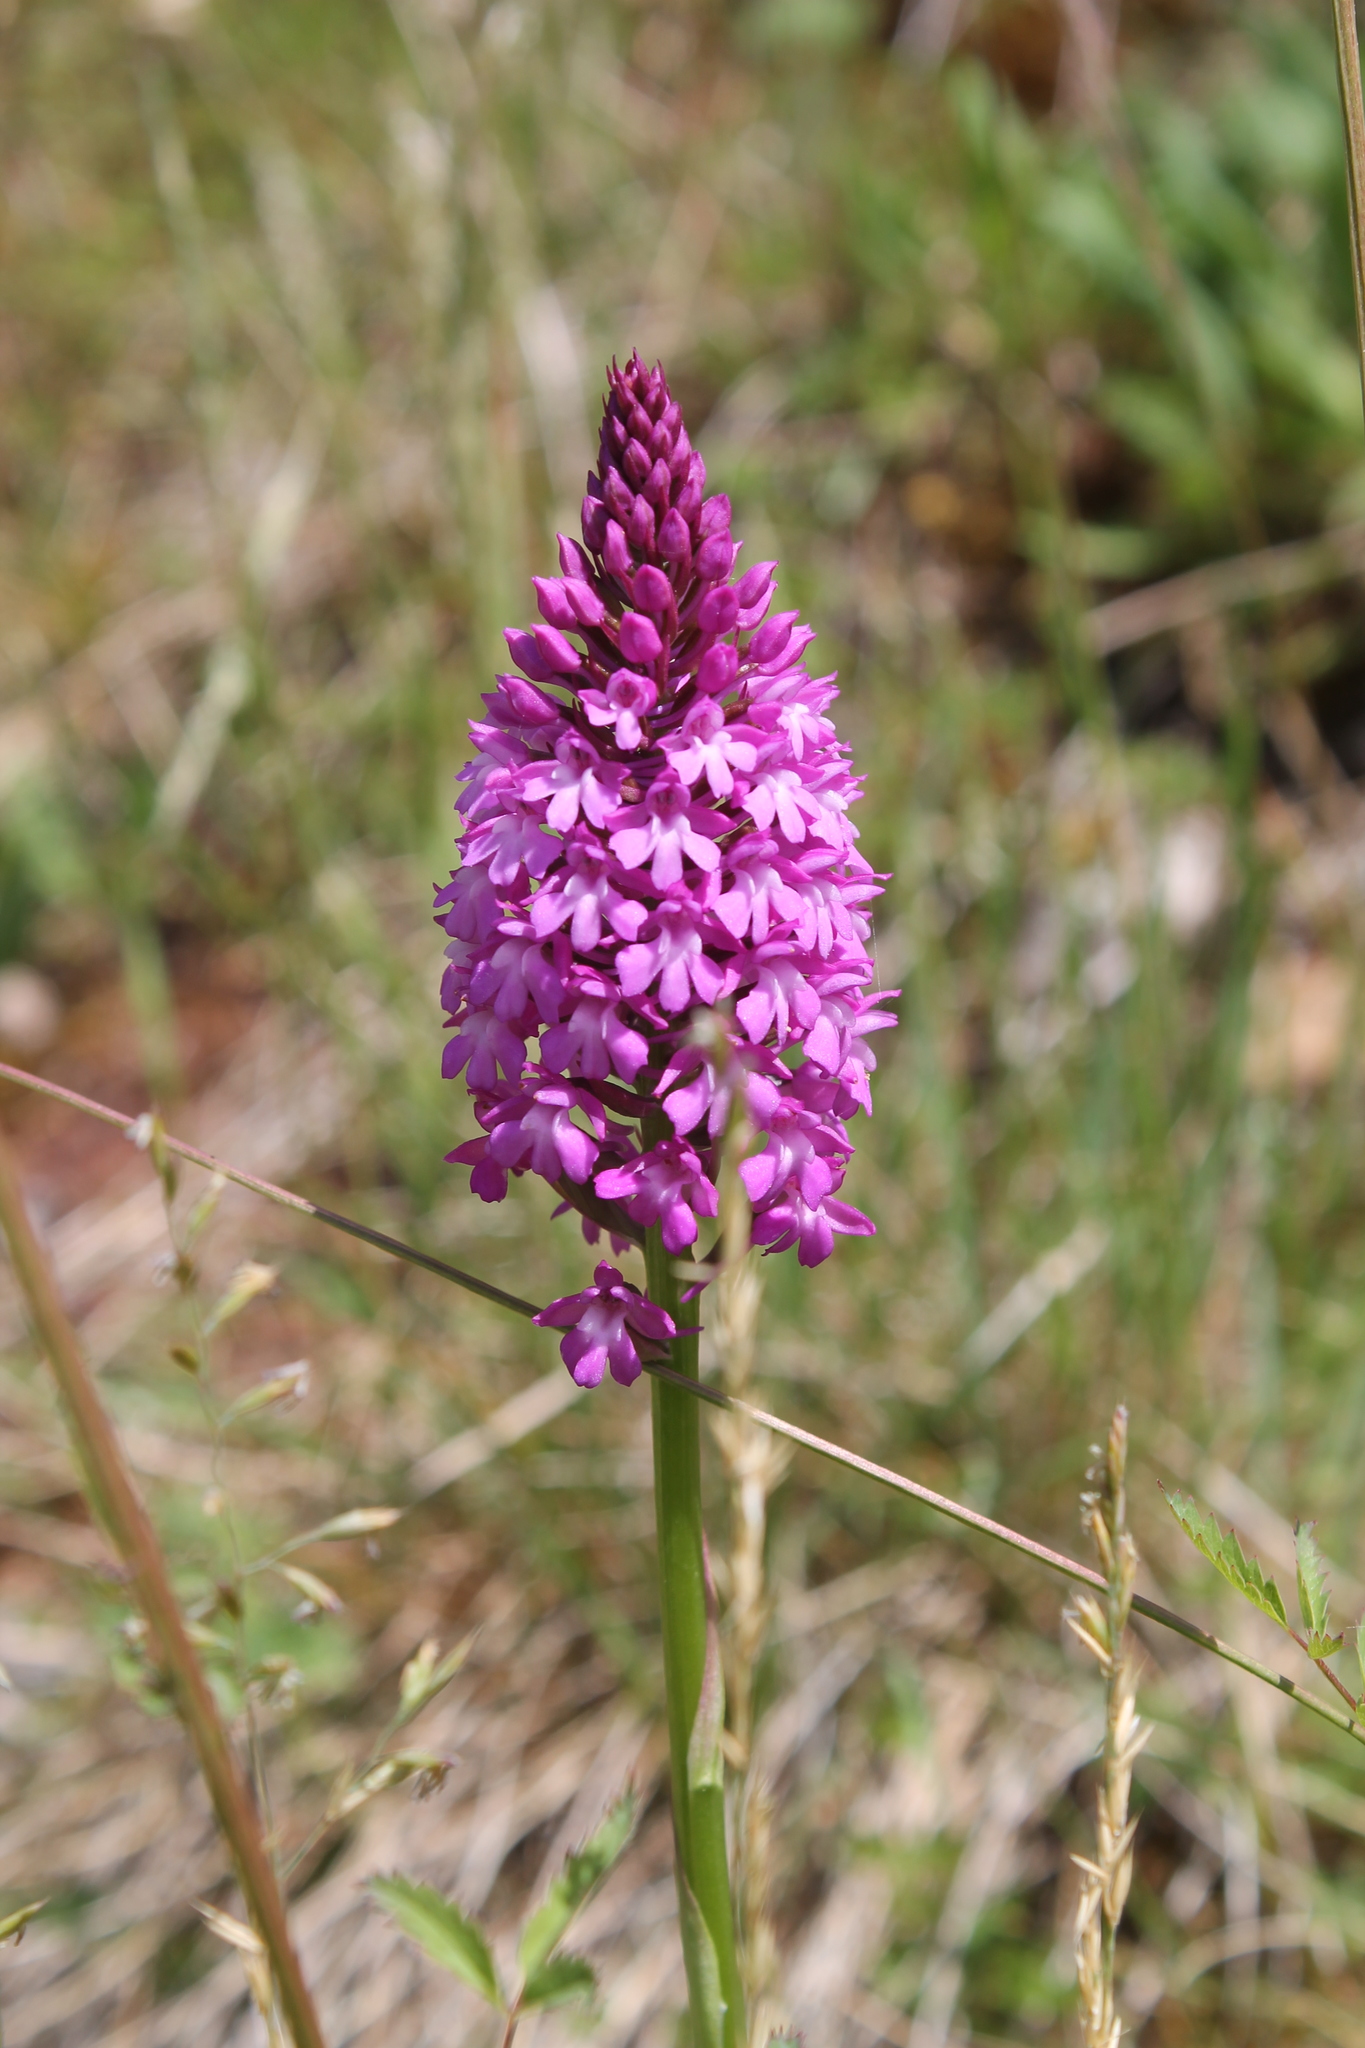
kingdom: Plantae
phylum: Tracheophyta
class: Liliopsida
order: Asparagales
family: Orchidaceae
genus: Anacamptis
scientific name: Anacamptis pyramidalis
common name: Pyramidal orchid
